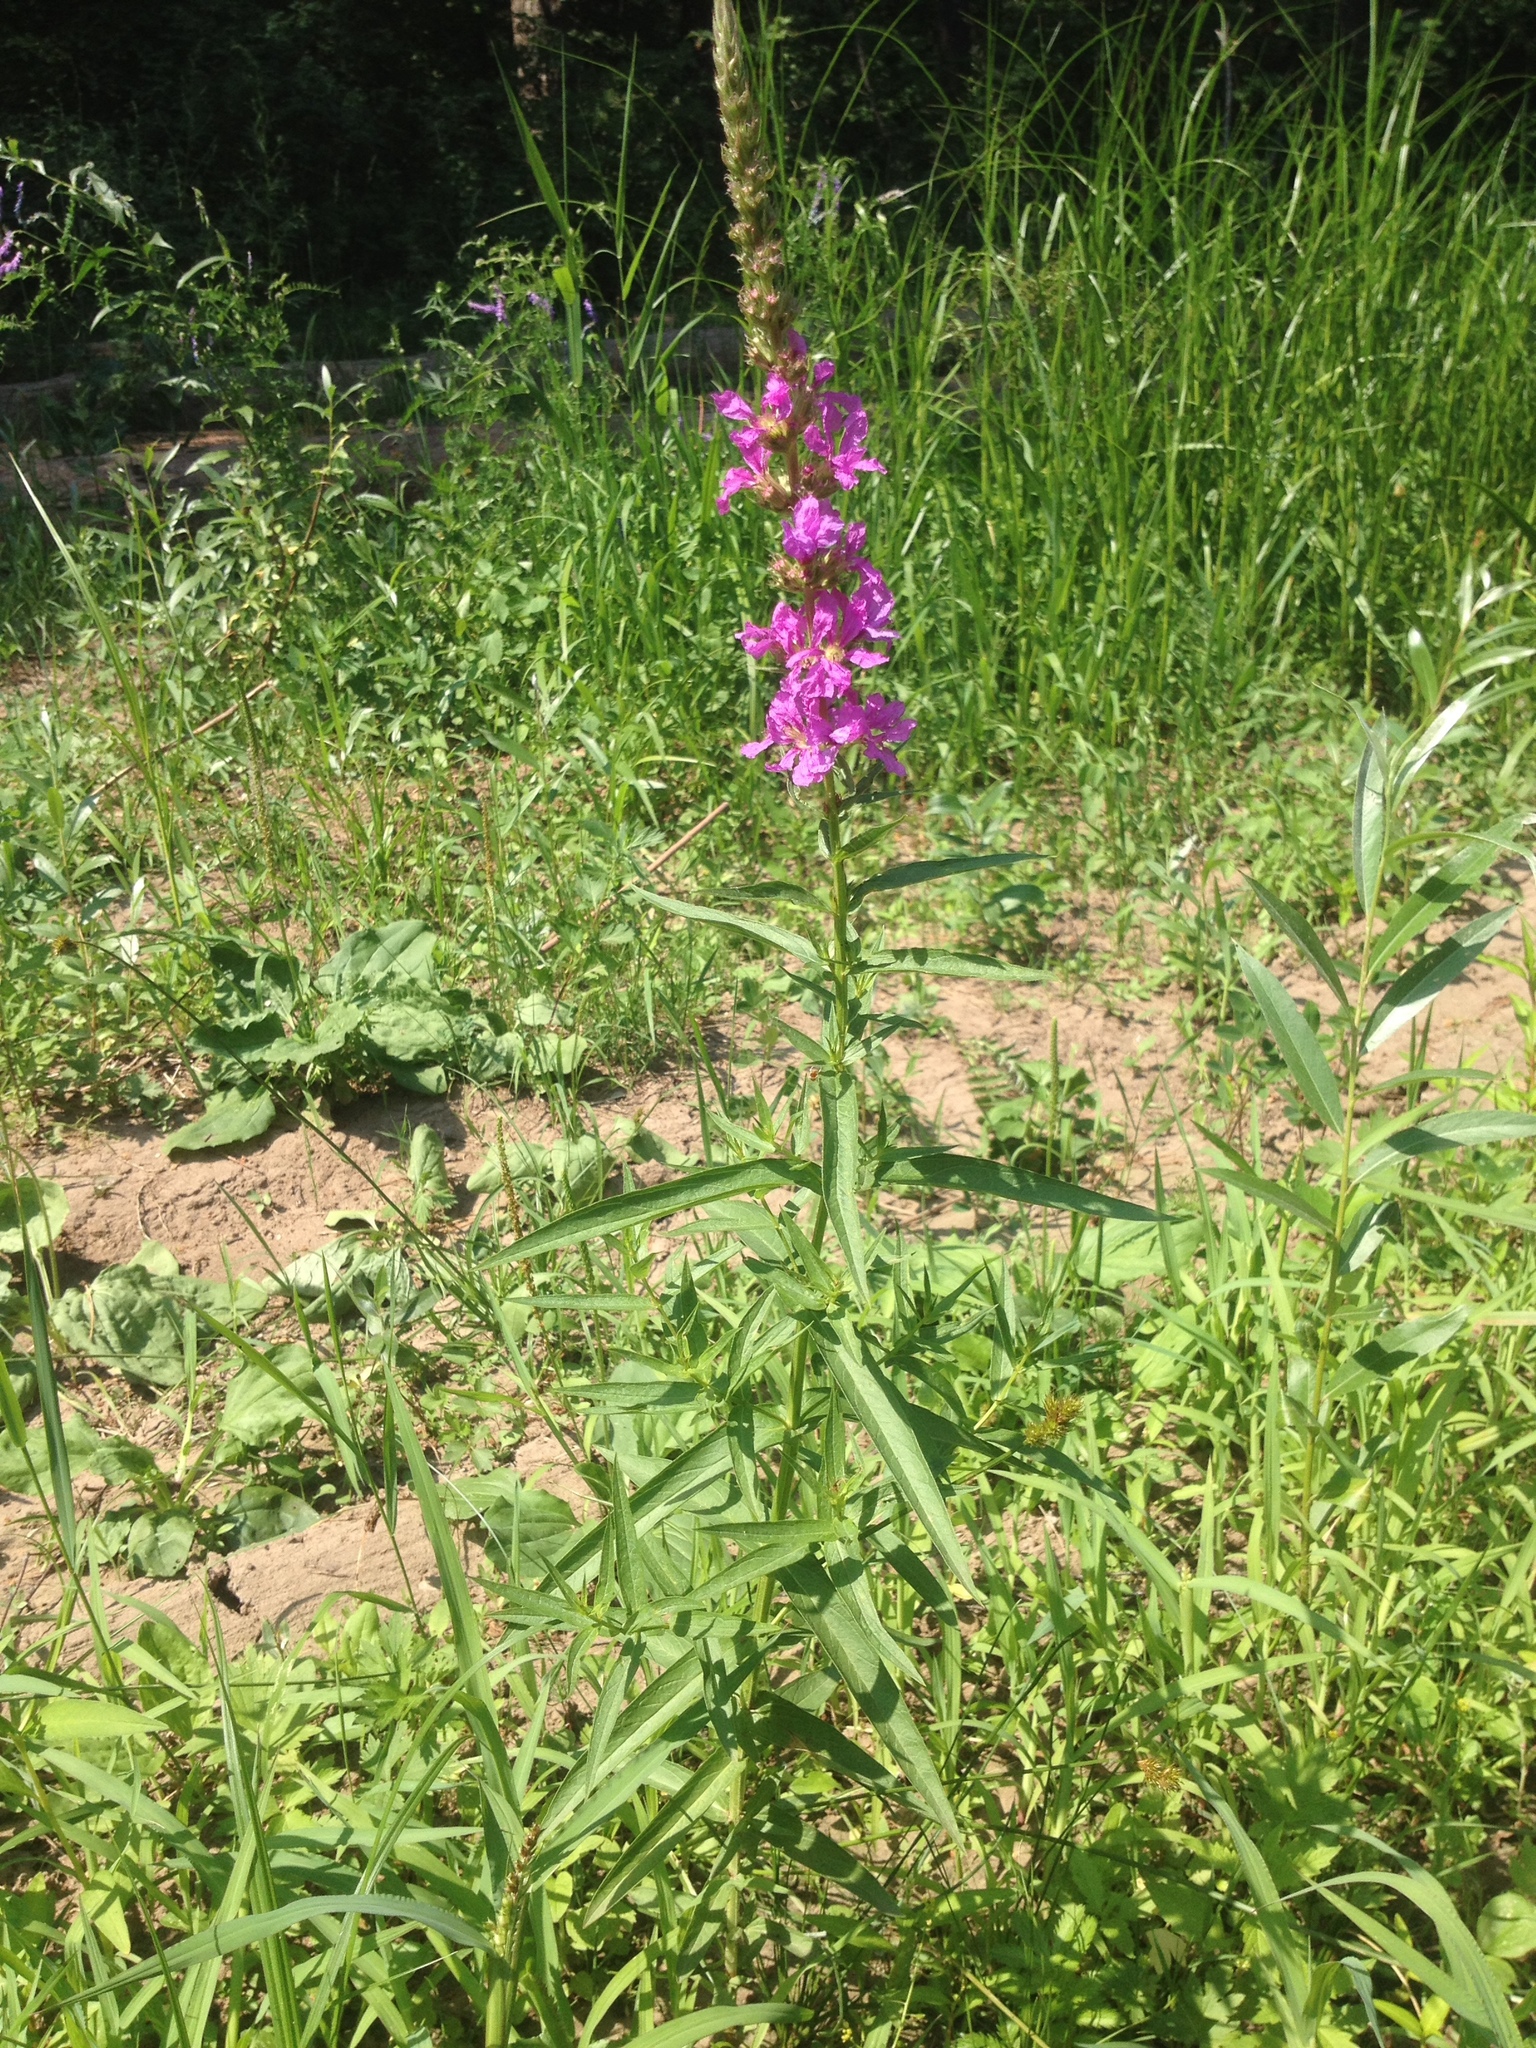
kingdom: Plantae
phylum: Tracheophyta
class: Magnoliopsida
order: Myrtales
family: Lythraceae
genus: Lythrum
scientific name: Lythrum salicaria
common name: Purple loosestrife
